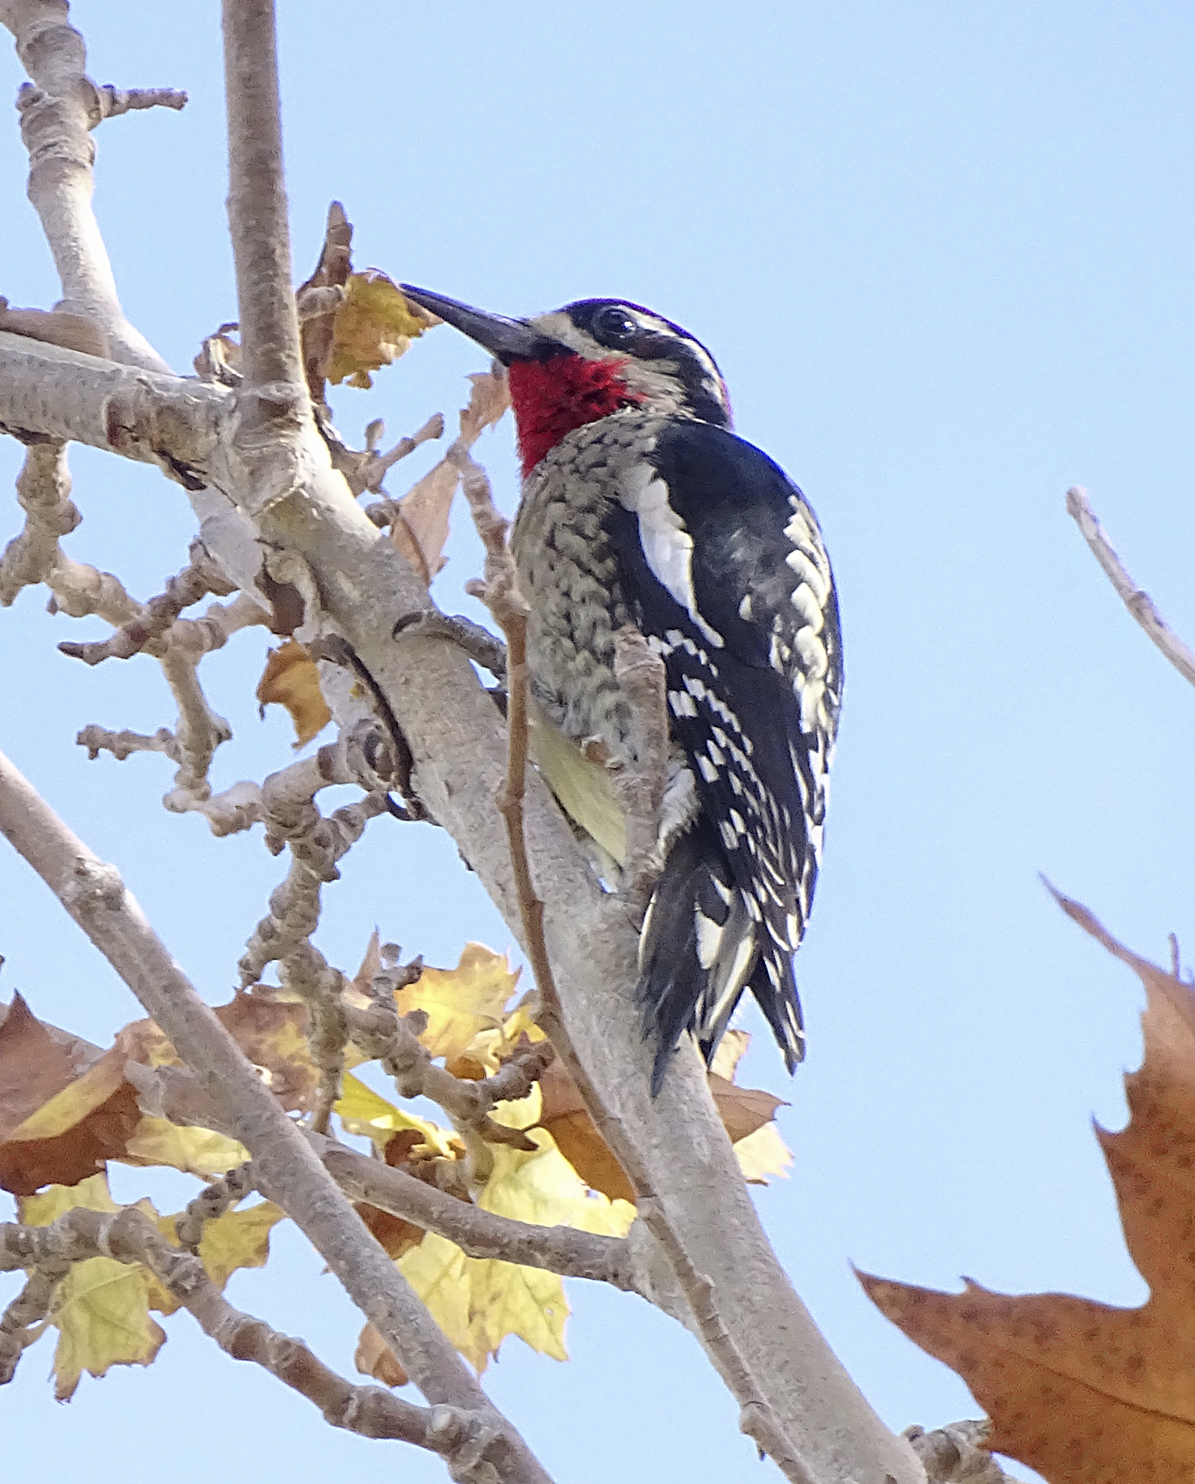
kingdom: Animalia
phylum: Chordata
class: Aves
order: Piciformes
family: Picidae
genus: Sphyrapicus
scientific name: Sphyrapicus nuchalis
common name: Red-naped sapsucker
